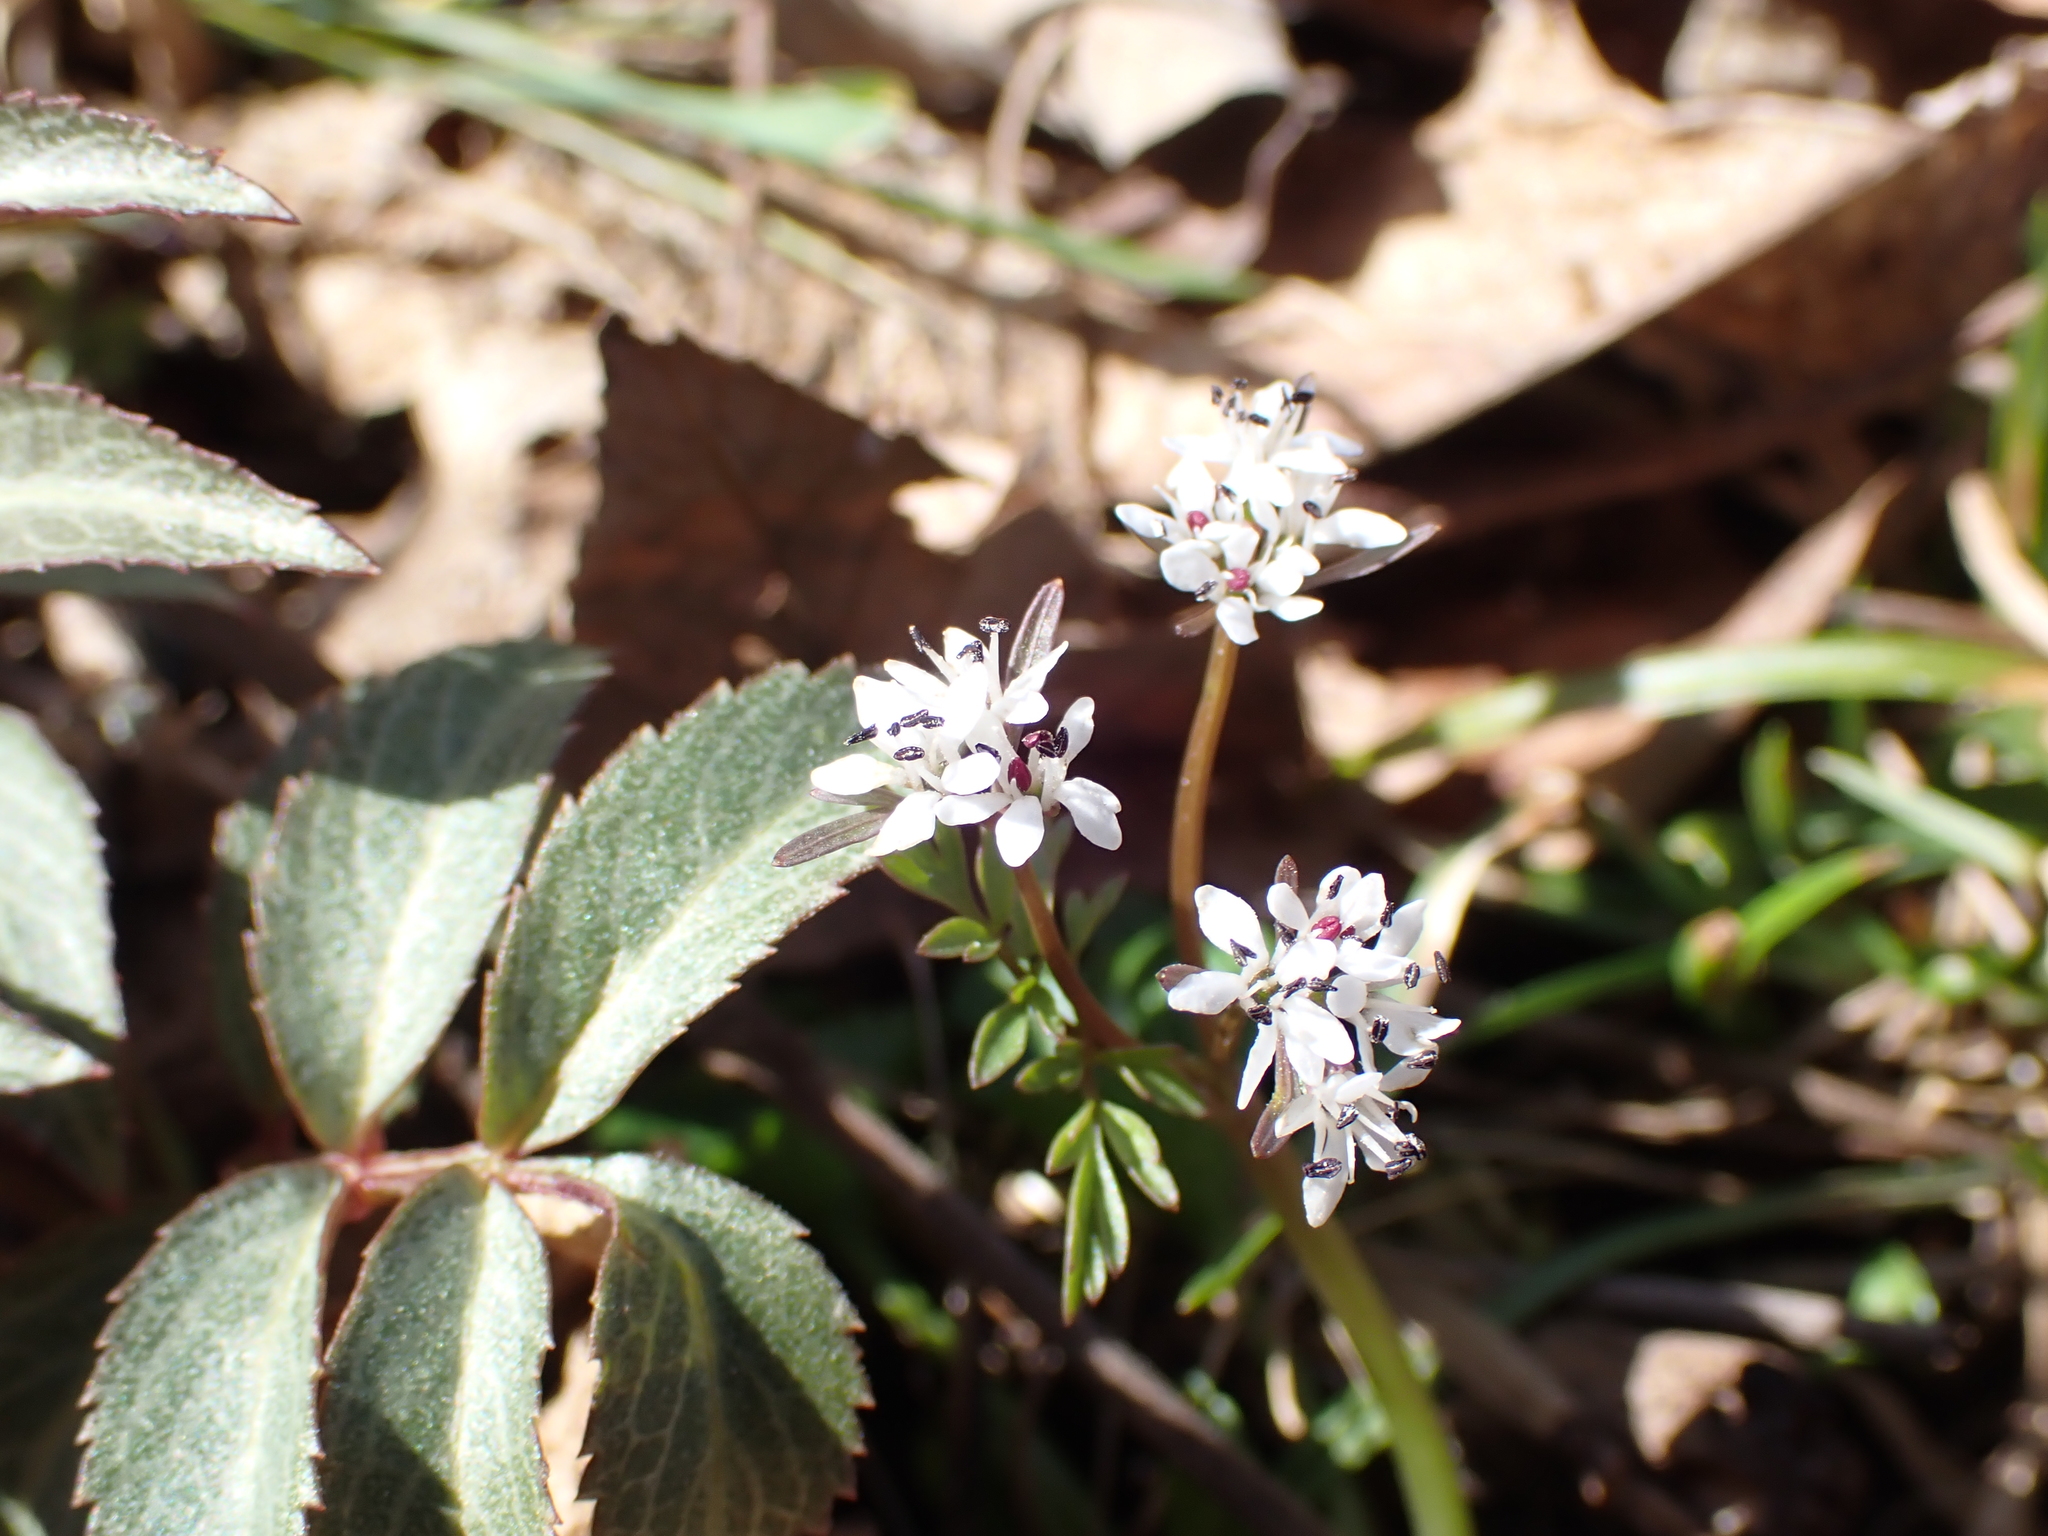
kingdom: Plantae
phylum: Tracheophyta
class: Magnoliopsida
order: Apiales
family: Apiaceae
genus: Erigenia
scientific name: Erigenia bulbosa
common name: Pepper-and-salt
